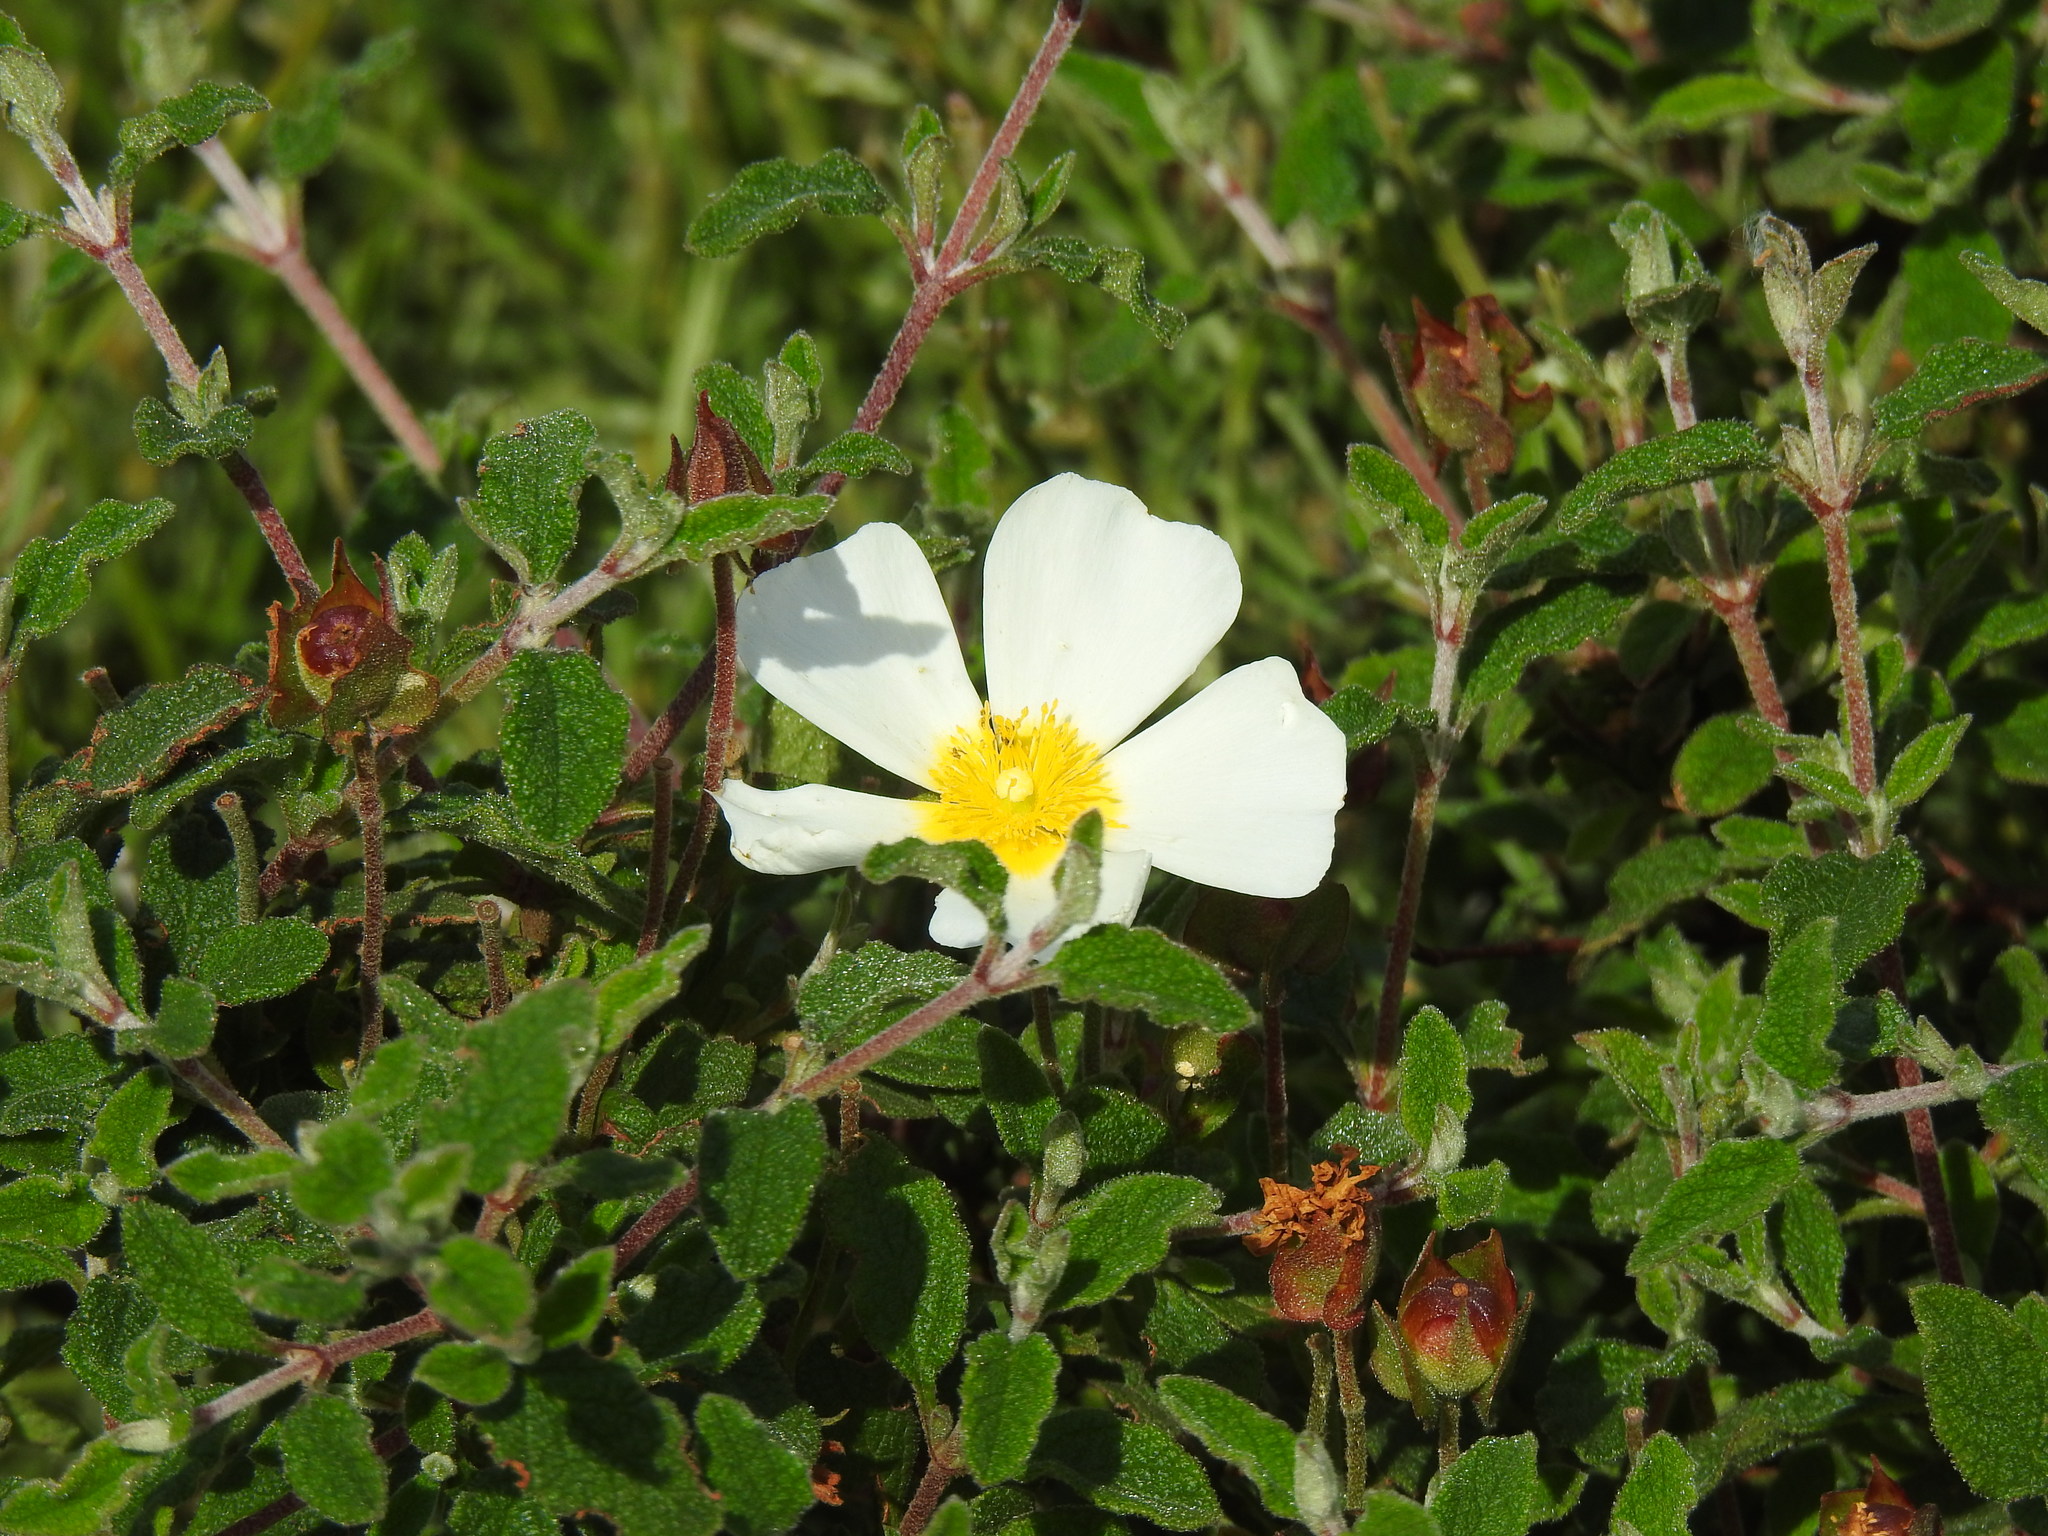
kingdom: Plantae
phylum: Tracheophyta
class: Magnoliopsida
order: Malvales
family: Cistaceae
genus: Cistus
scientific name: Cistus salviifolius
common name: Salvia cistus
